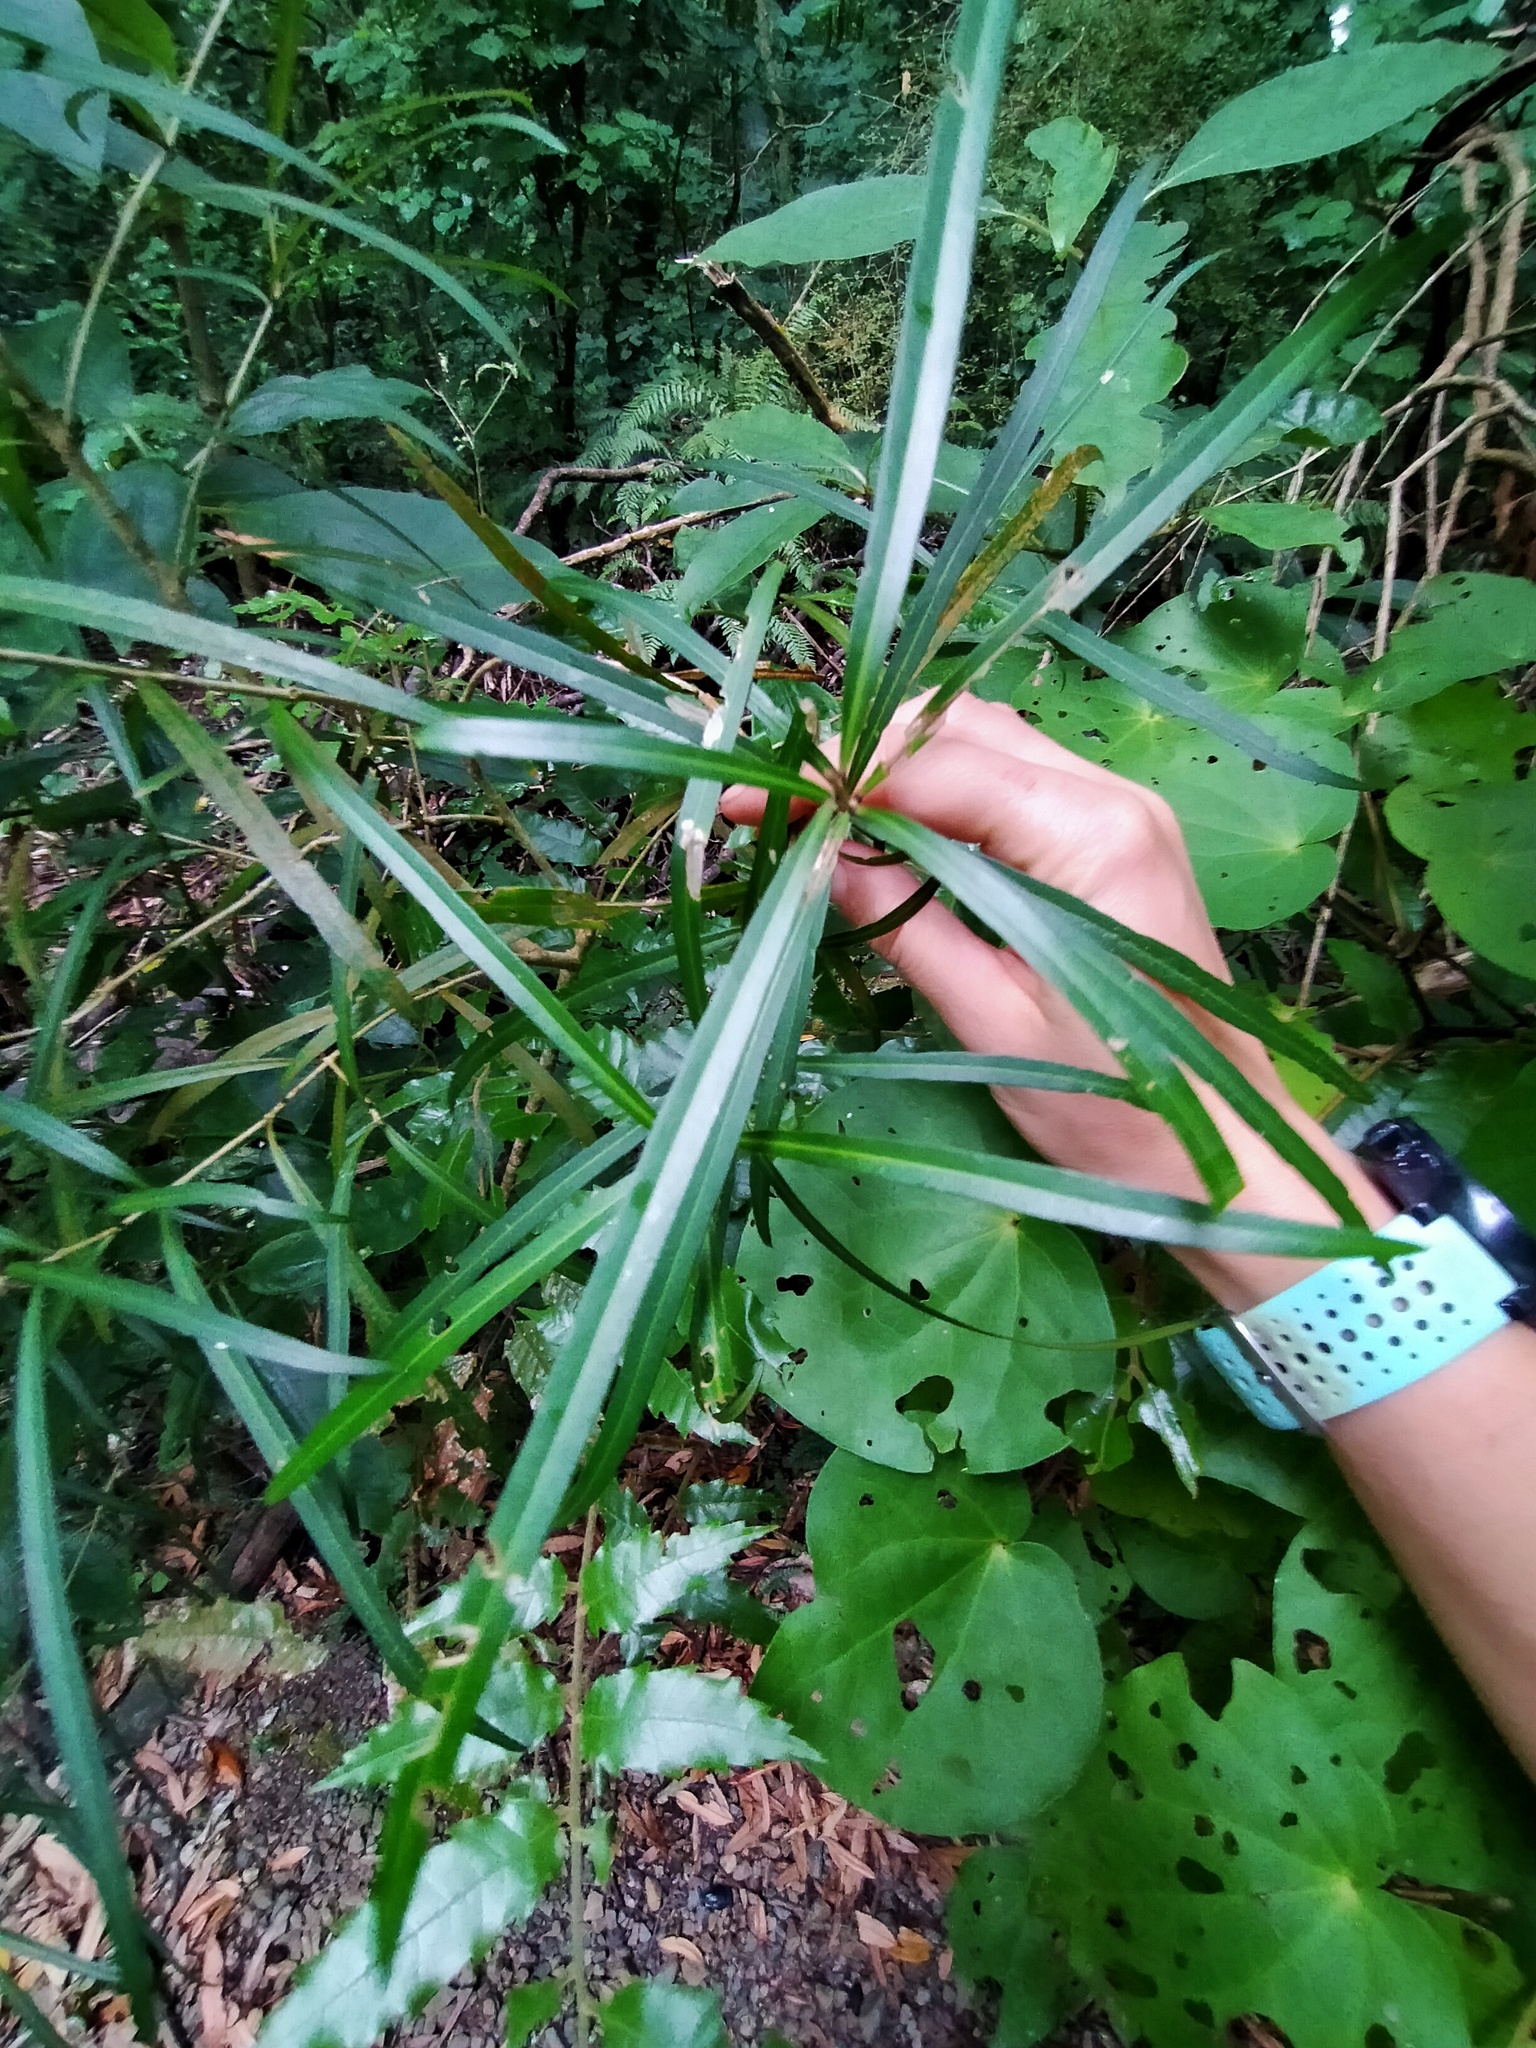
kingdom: Plantae
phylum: Tracheophyta
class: Magnoliopsida
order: Lamiales
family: Oleaceae
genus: Nestegis
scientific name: Nestegis lanceolata
